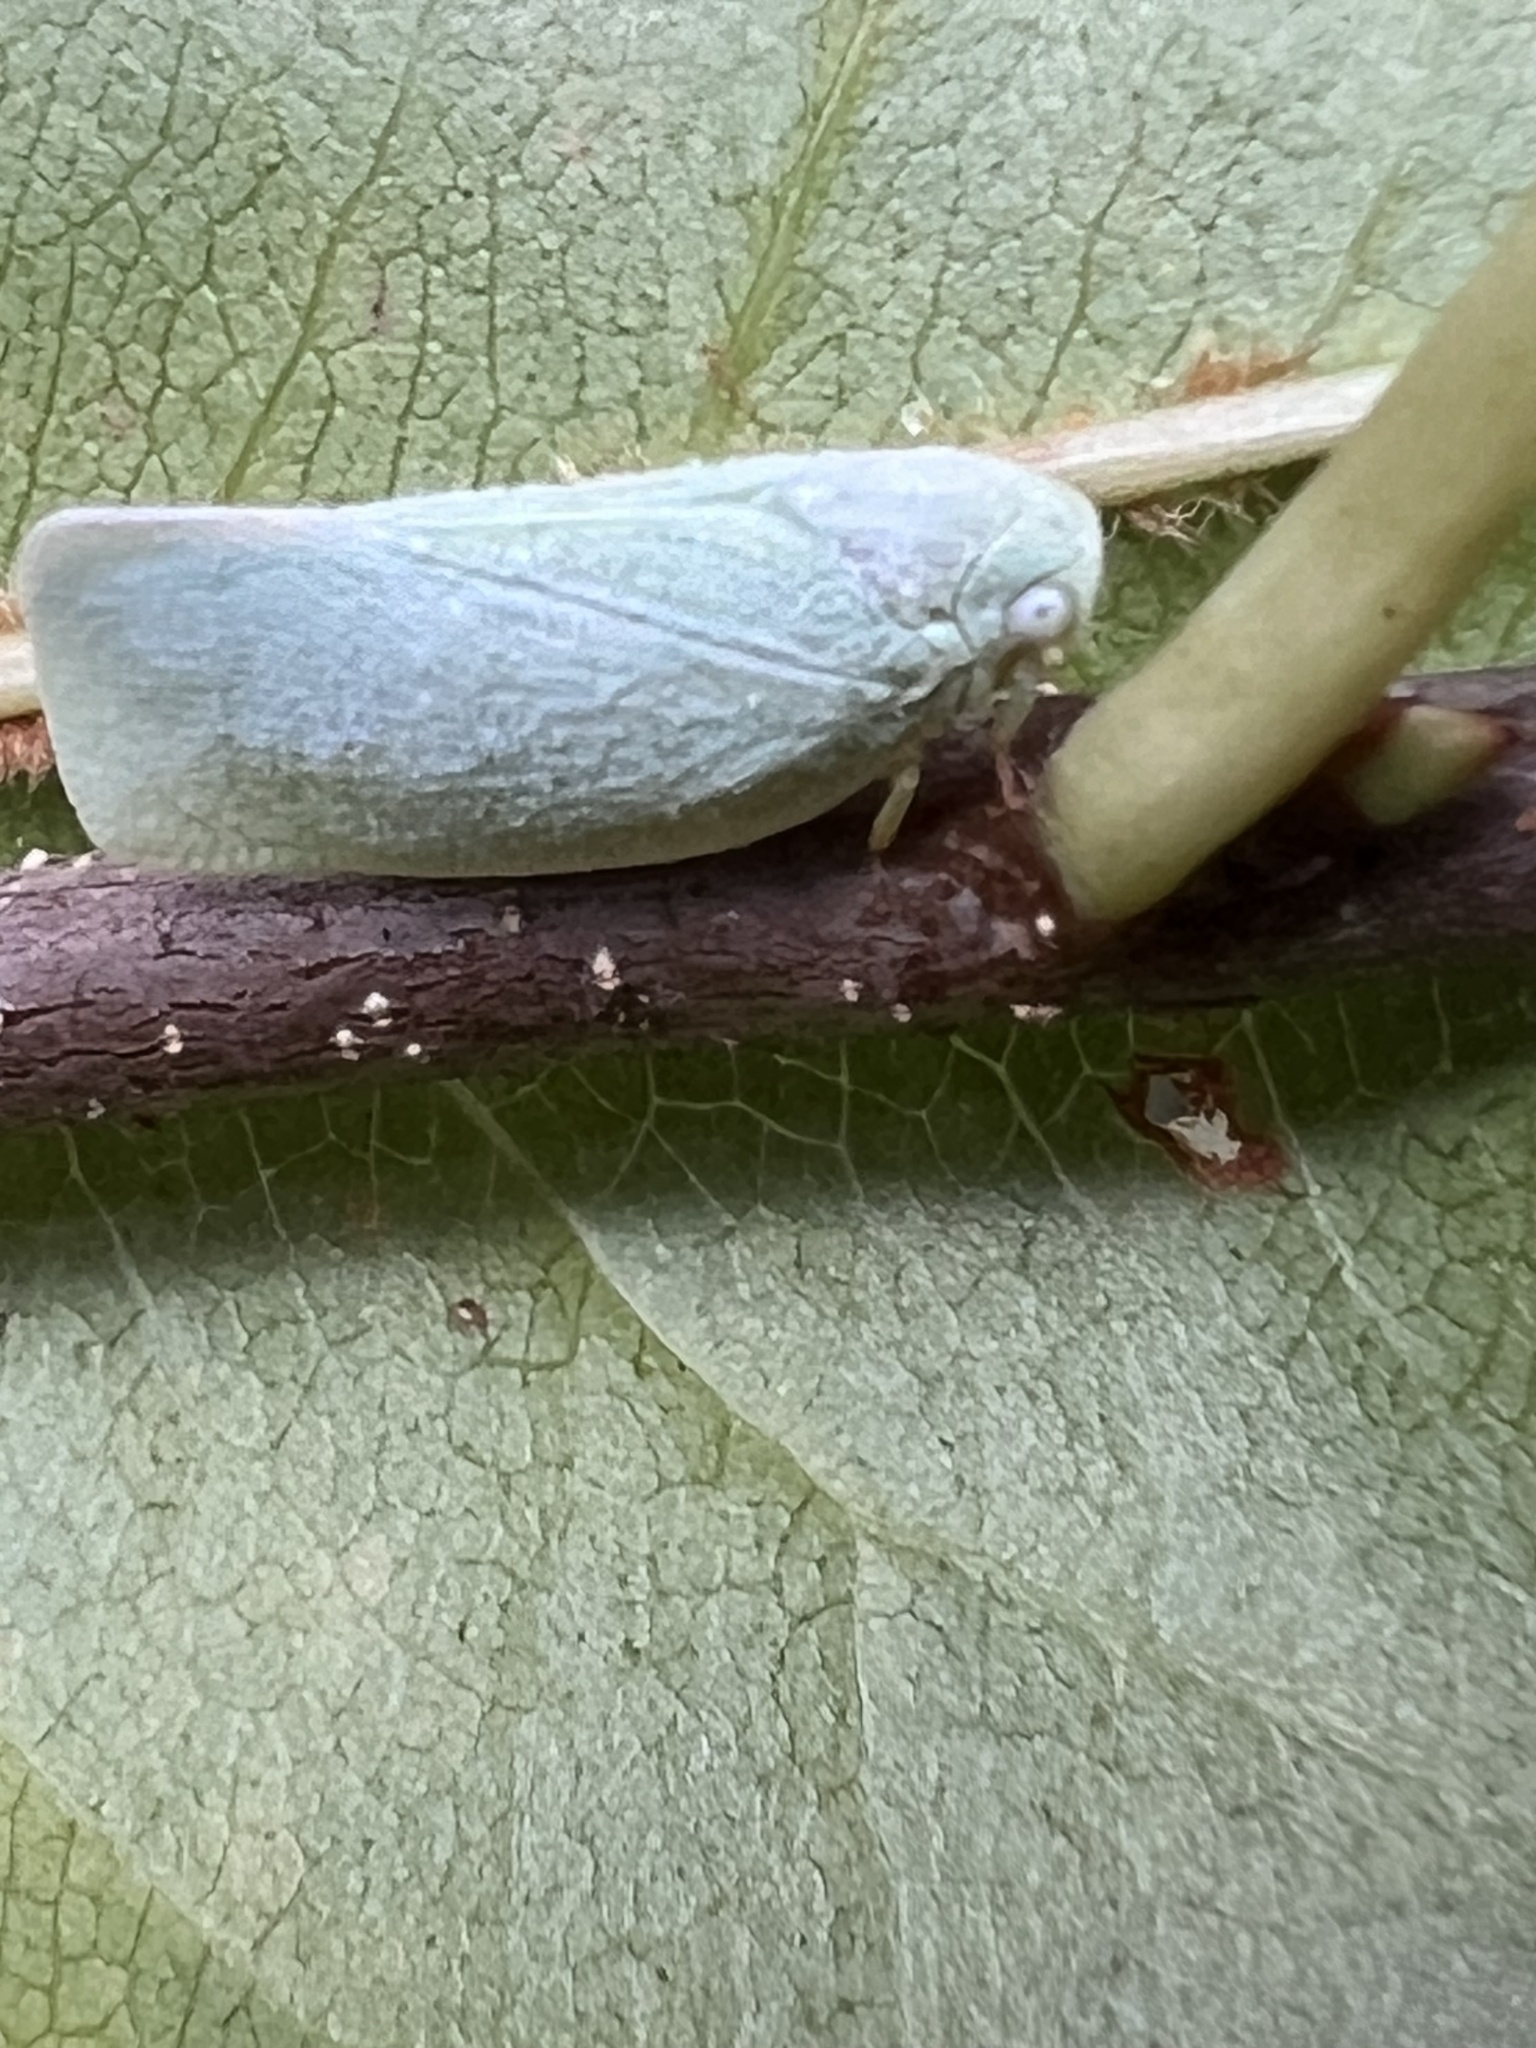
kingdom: Animalia
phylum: Arthropoda
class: Insecta
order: Hemiptera
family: Flatidae
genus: Flatormenis
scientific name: Flatormenis proxima
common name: Northern flatid planthopper
